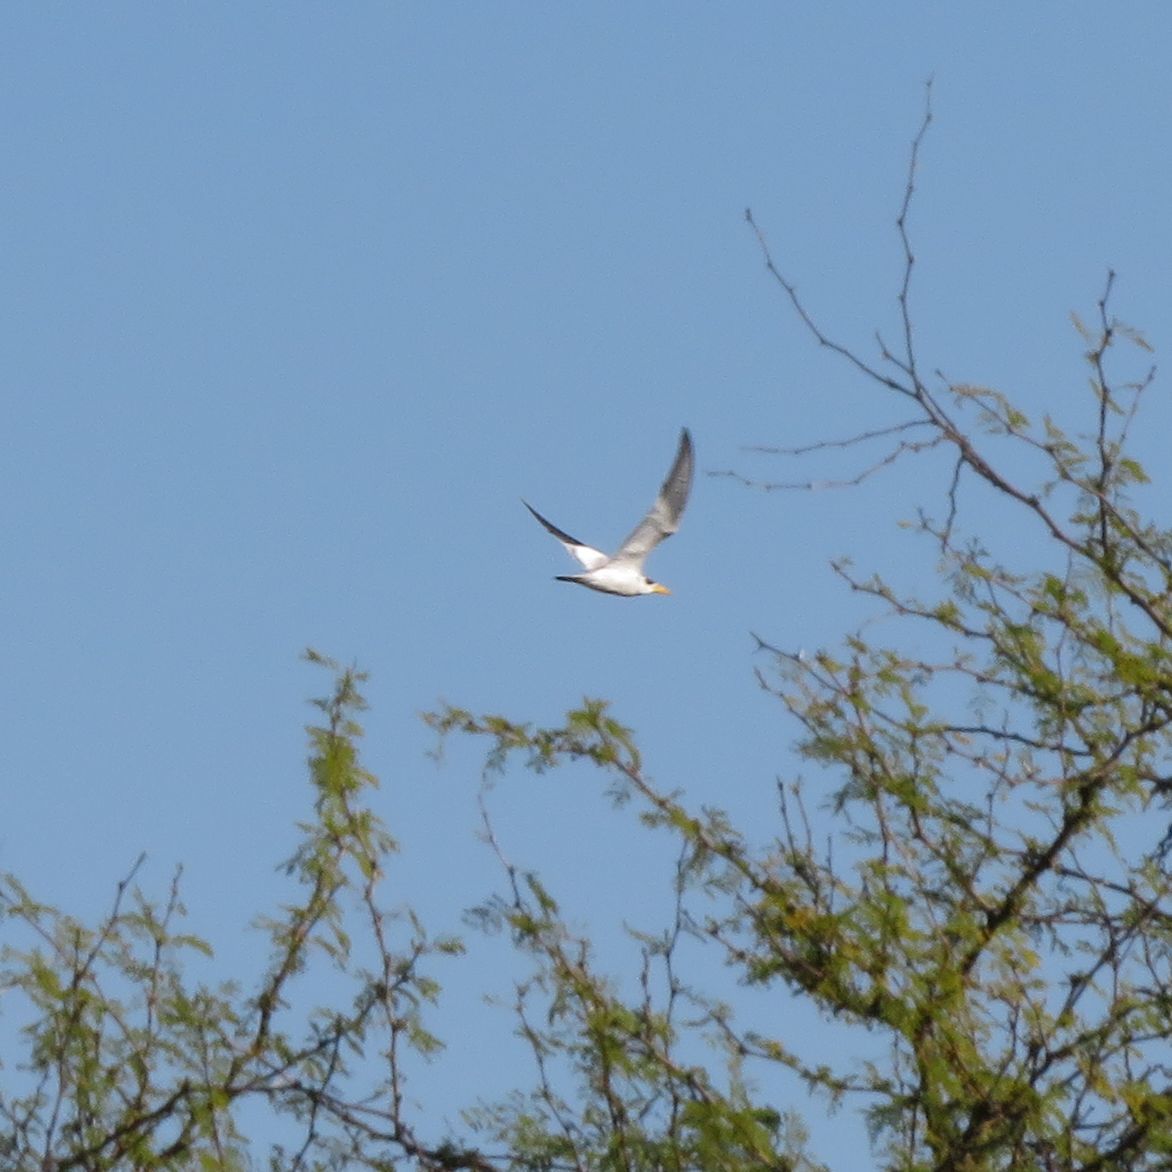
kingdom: Animalia
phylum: Chordata
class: Aves
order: Charadriiformes
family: Laridae
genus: Phaetusa
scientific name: Phaetusa simplex
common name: Large-billed tern
